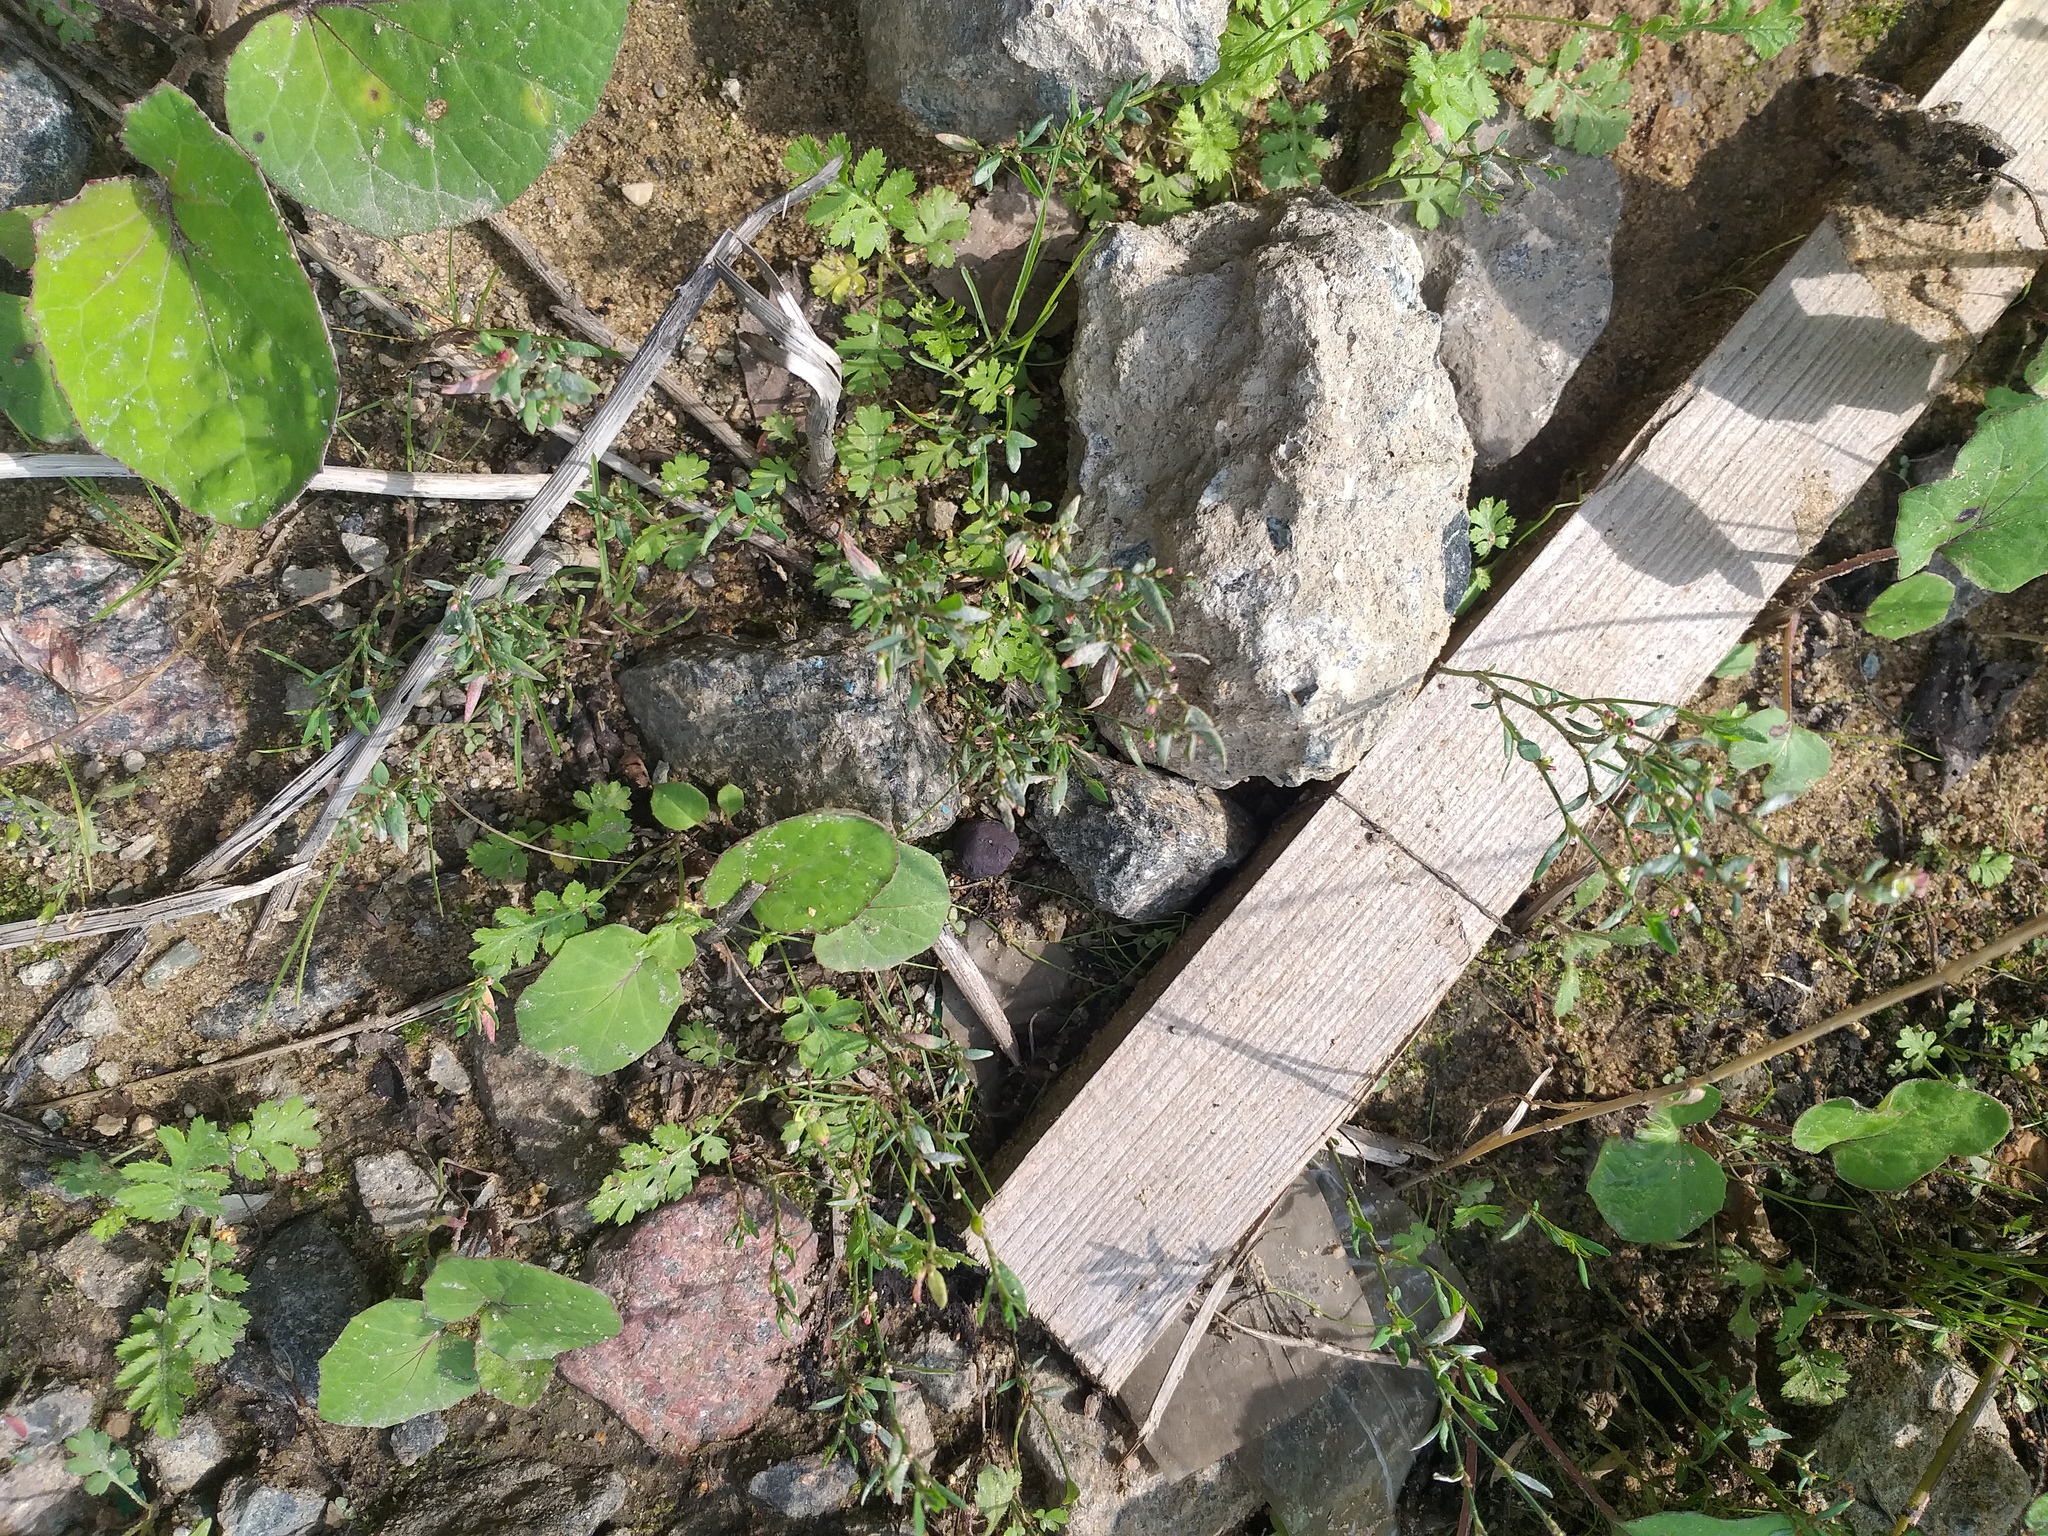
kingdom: Plantae
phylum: Tracheophyta
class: Magnoliopsida
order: Caryophyllales
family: Polygonaceae
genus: Polygonum
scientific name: Polygonum
